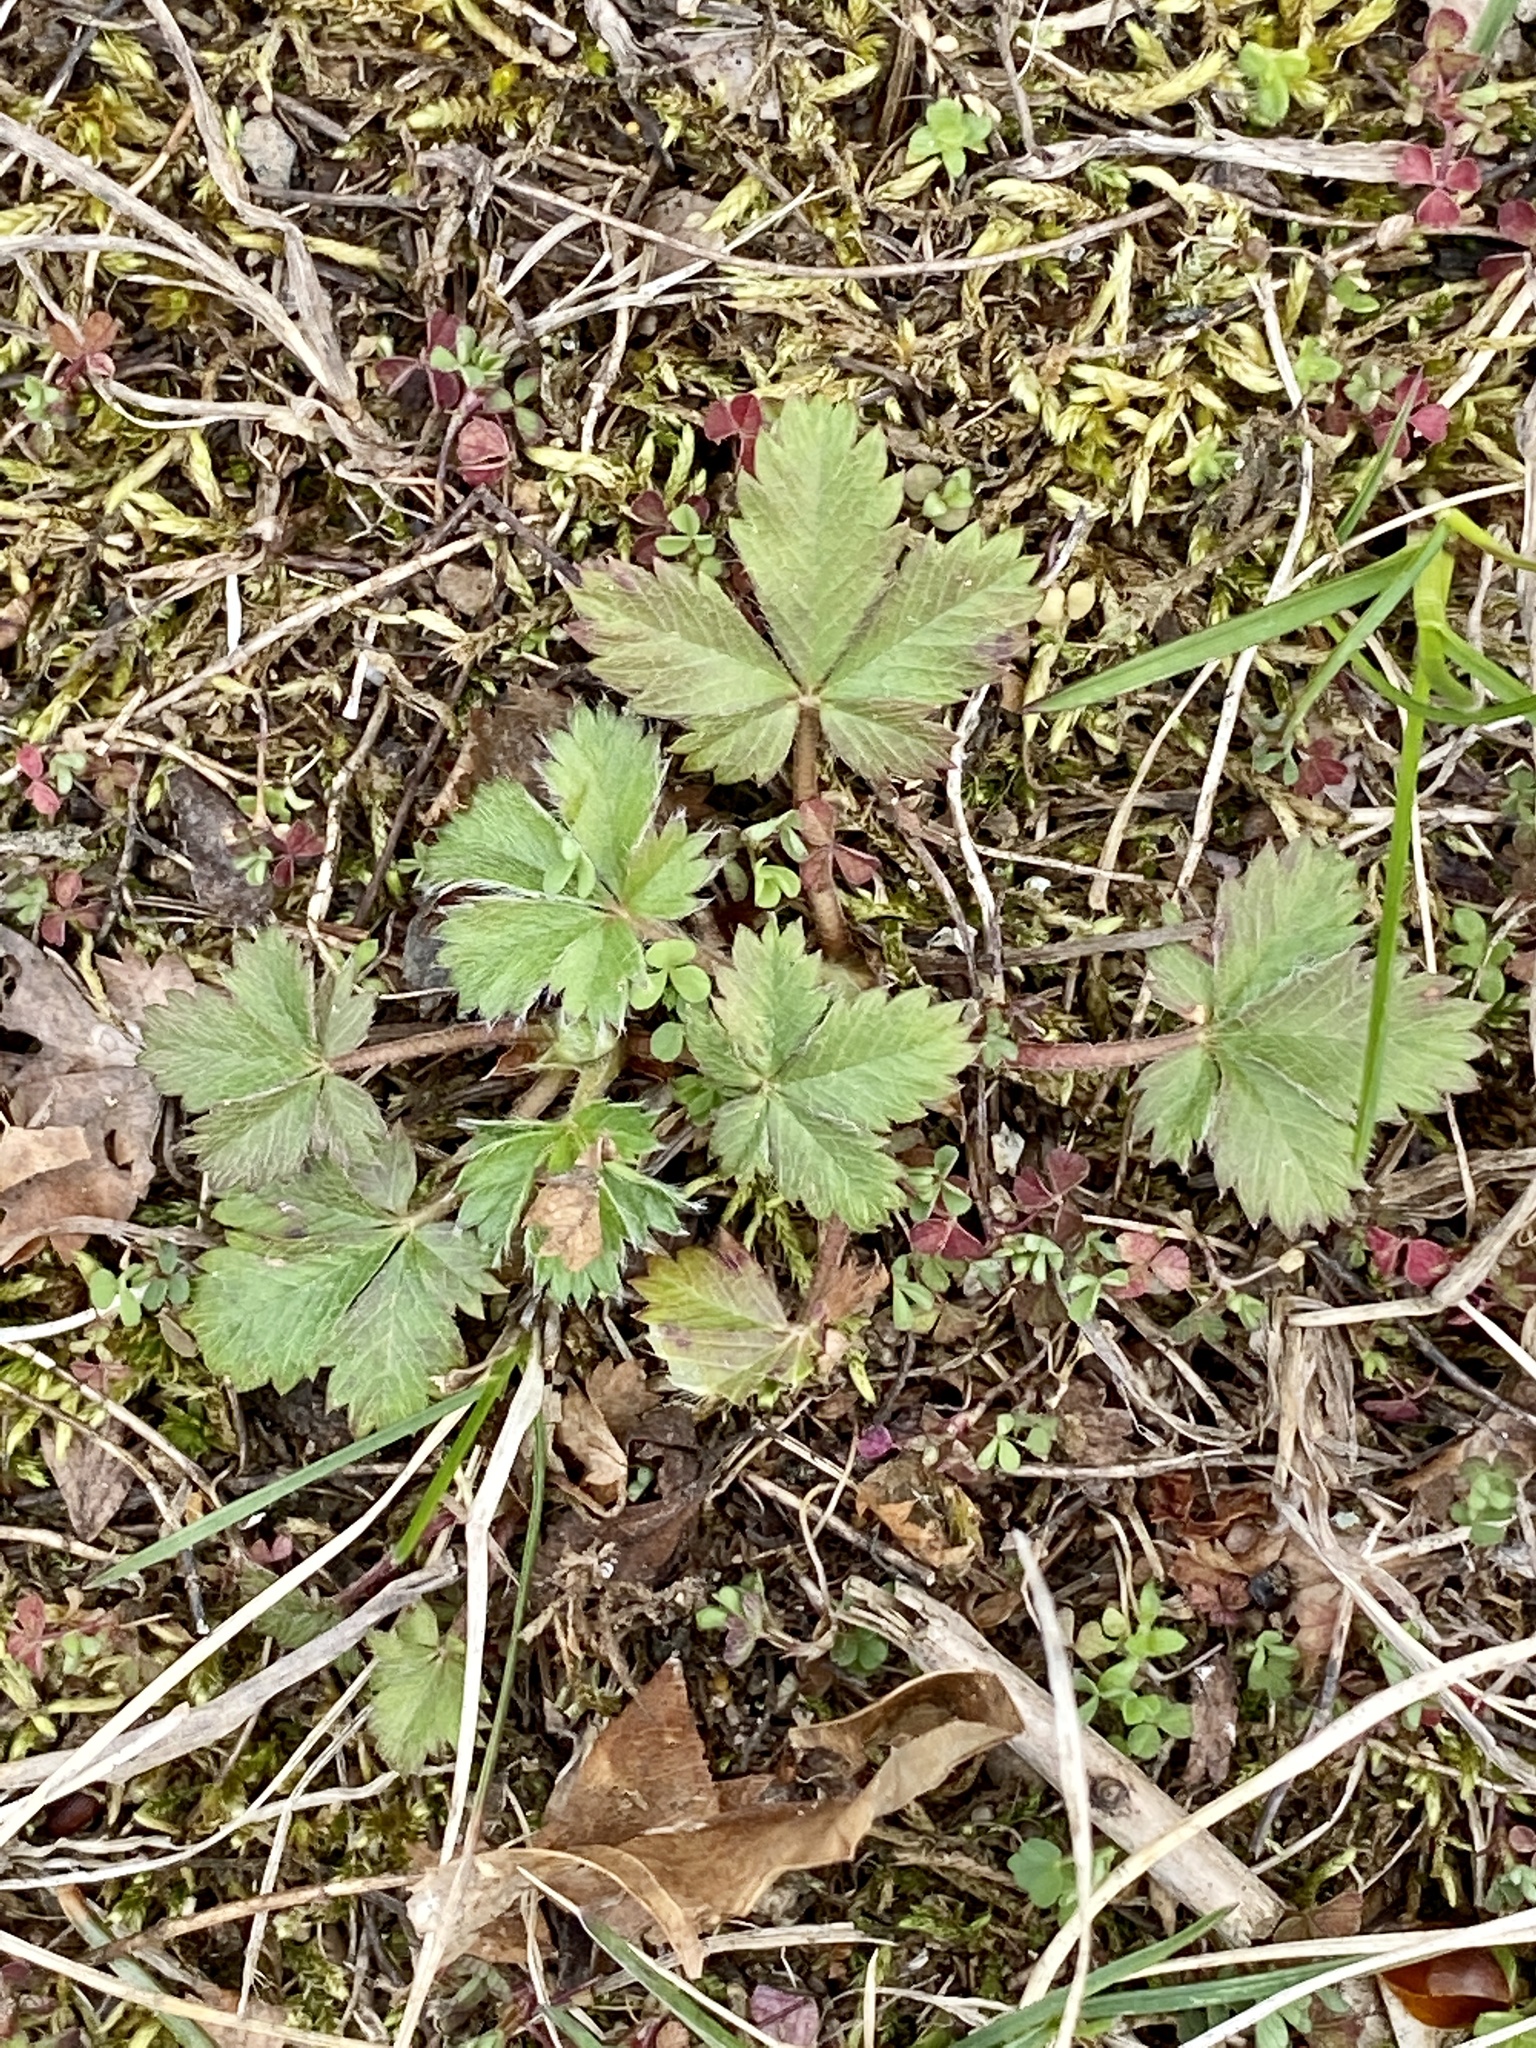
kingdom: Plantae
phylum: Tracheophyta
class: Magnoliopsida
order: Rosales
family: Rosaceae
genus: Potentilla
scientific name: Potentilla canadensis
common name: Canada cinquefoil
